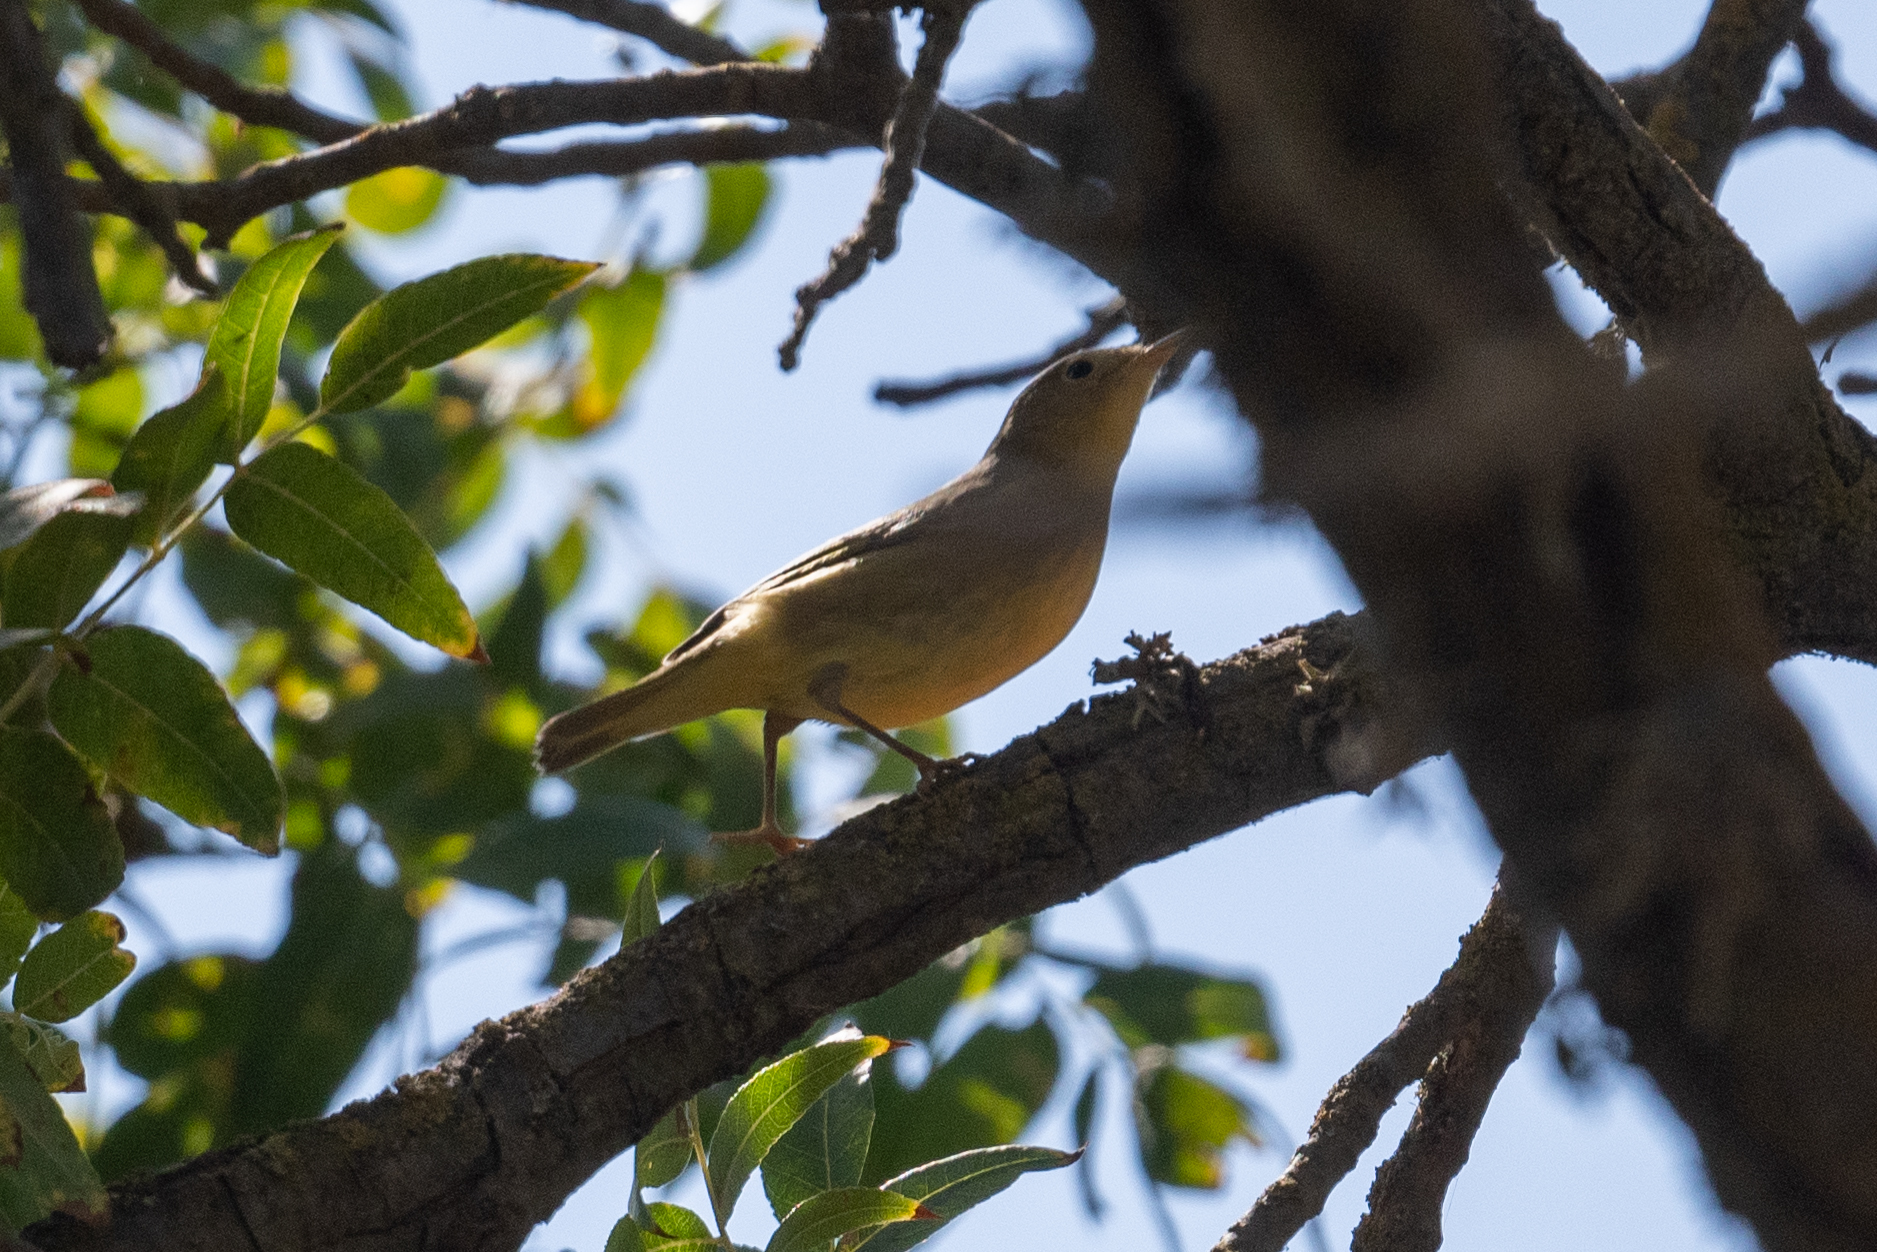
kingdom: Animalia
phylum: Chordata
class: Aves
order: Passeriformes
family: Parulidae
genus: Setophaga
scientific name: Setophaga petechia
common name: Yellow warbler
